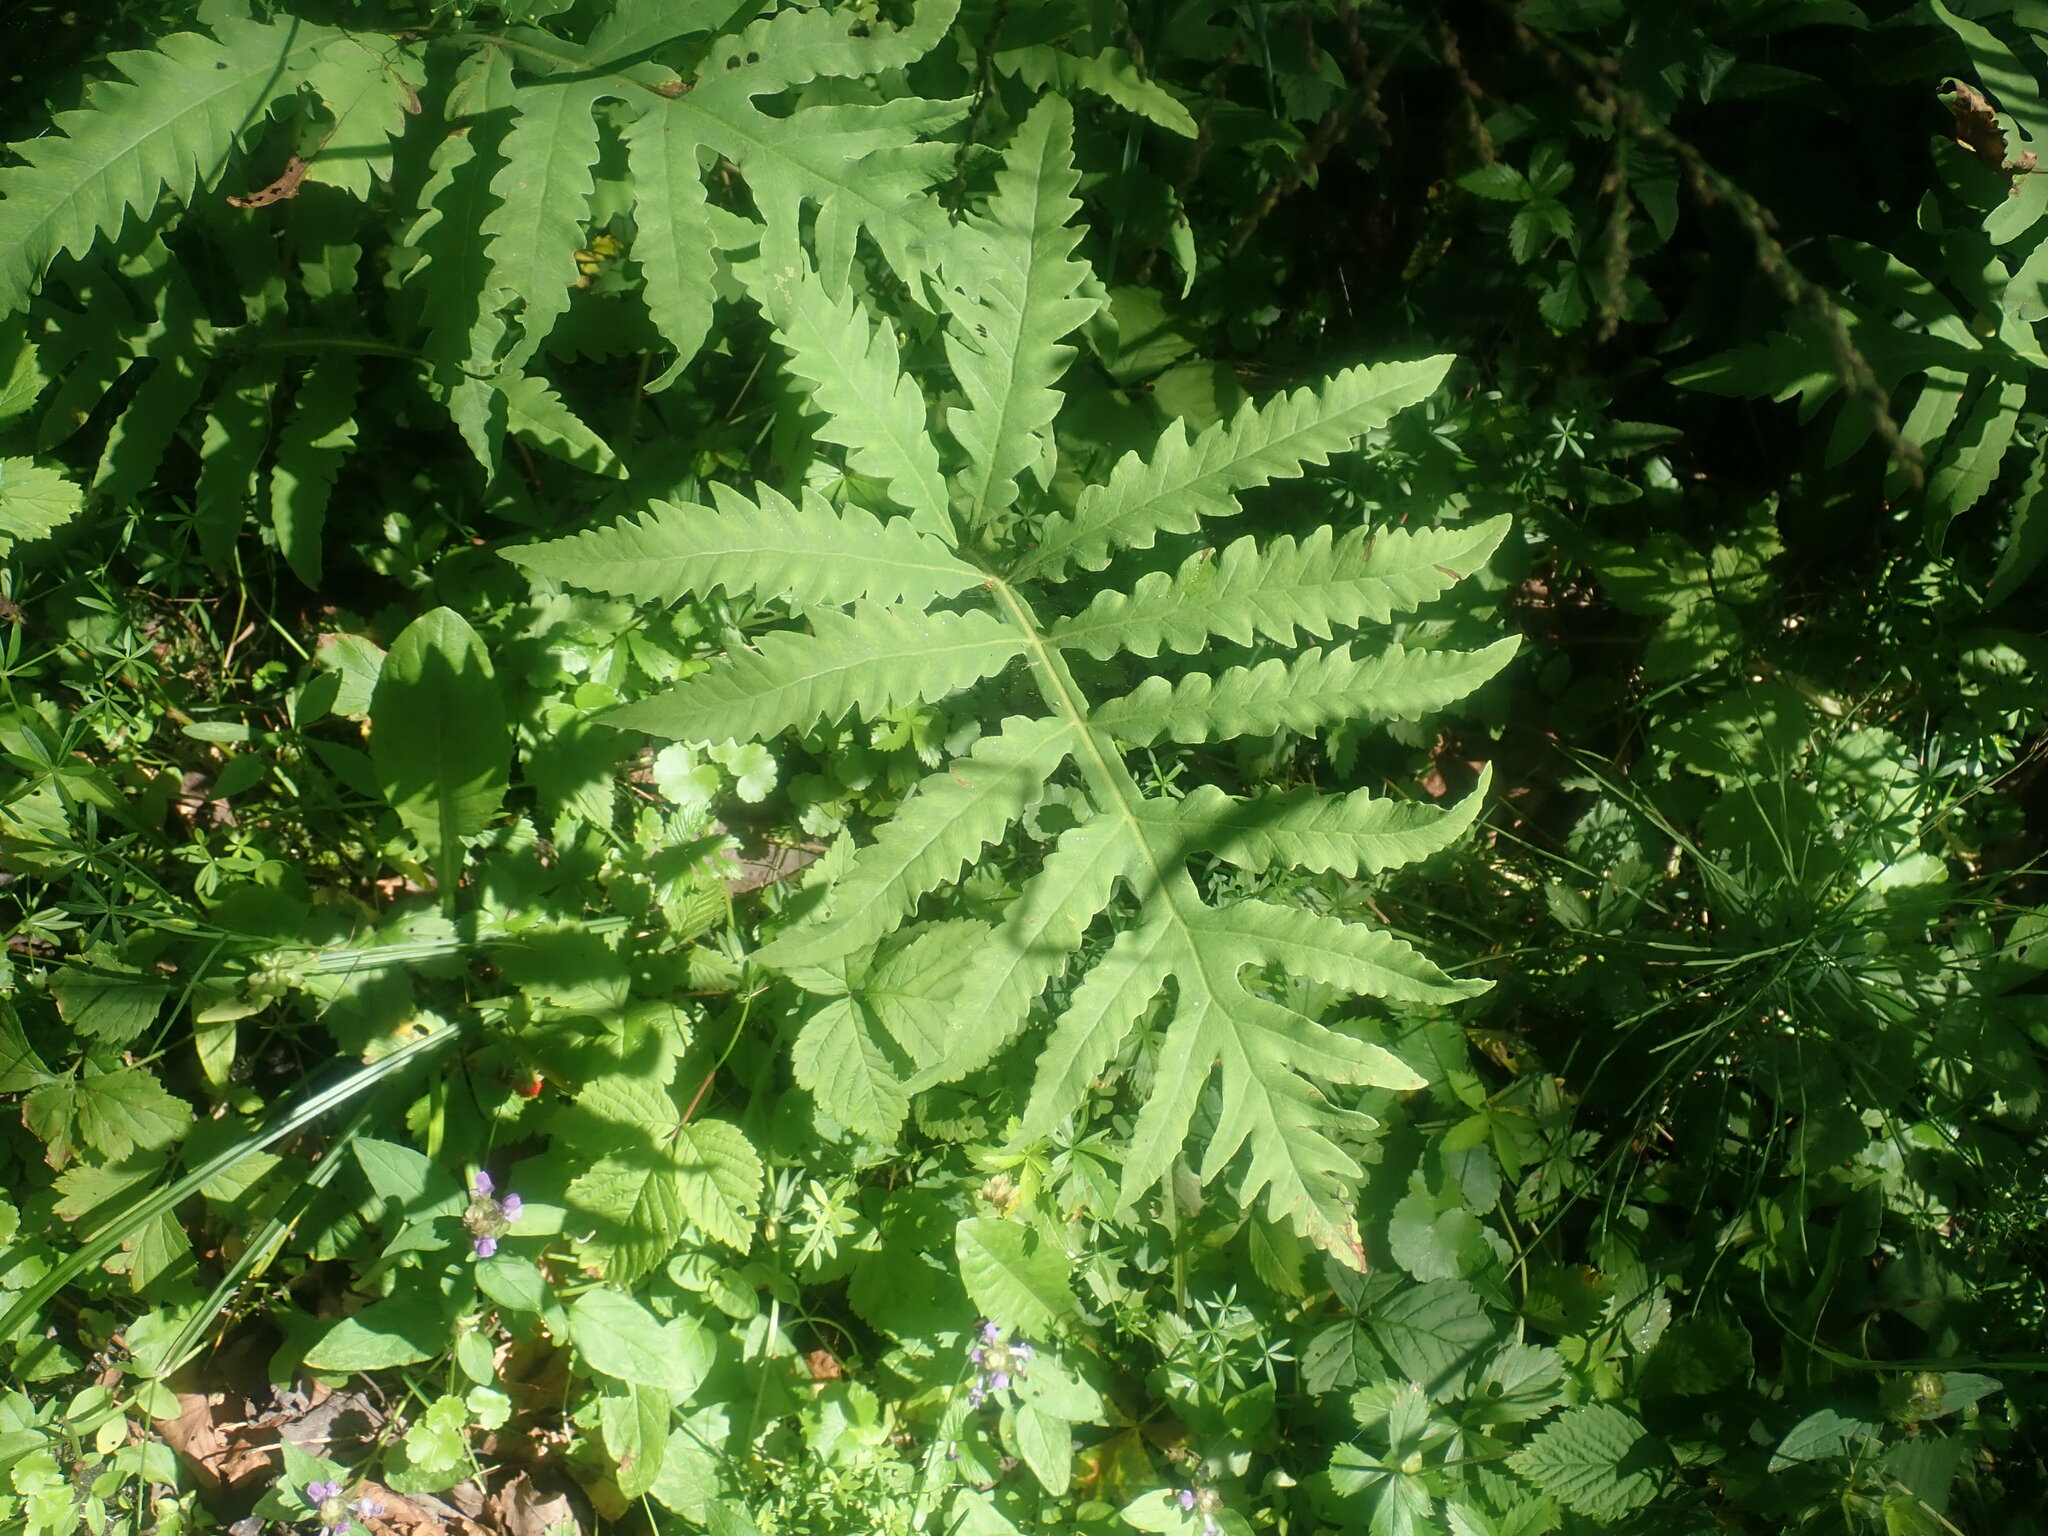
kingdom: Plantae
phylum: Tracheophyta
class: Polypodiopsida
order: Polypodiales
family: Onocleaceae
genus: Onoclea
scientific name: Onoclea sensibilis
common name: Sensitive fern
